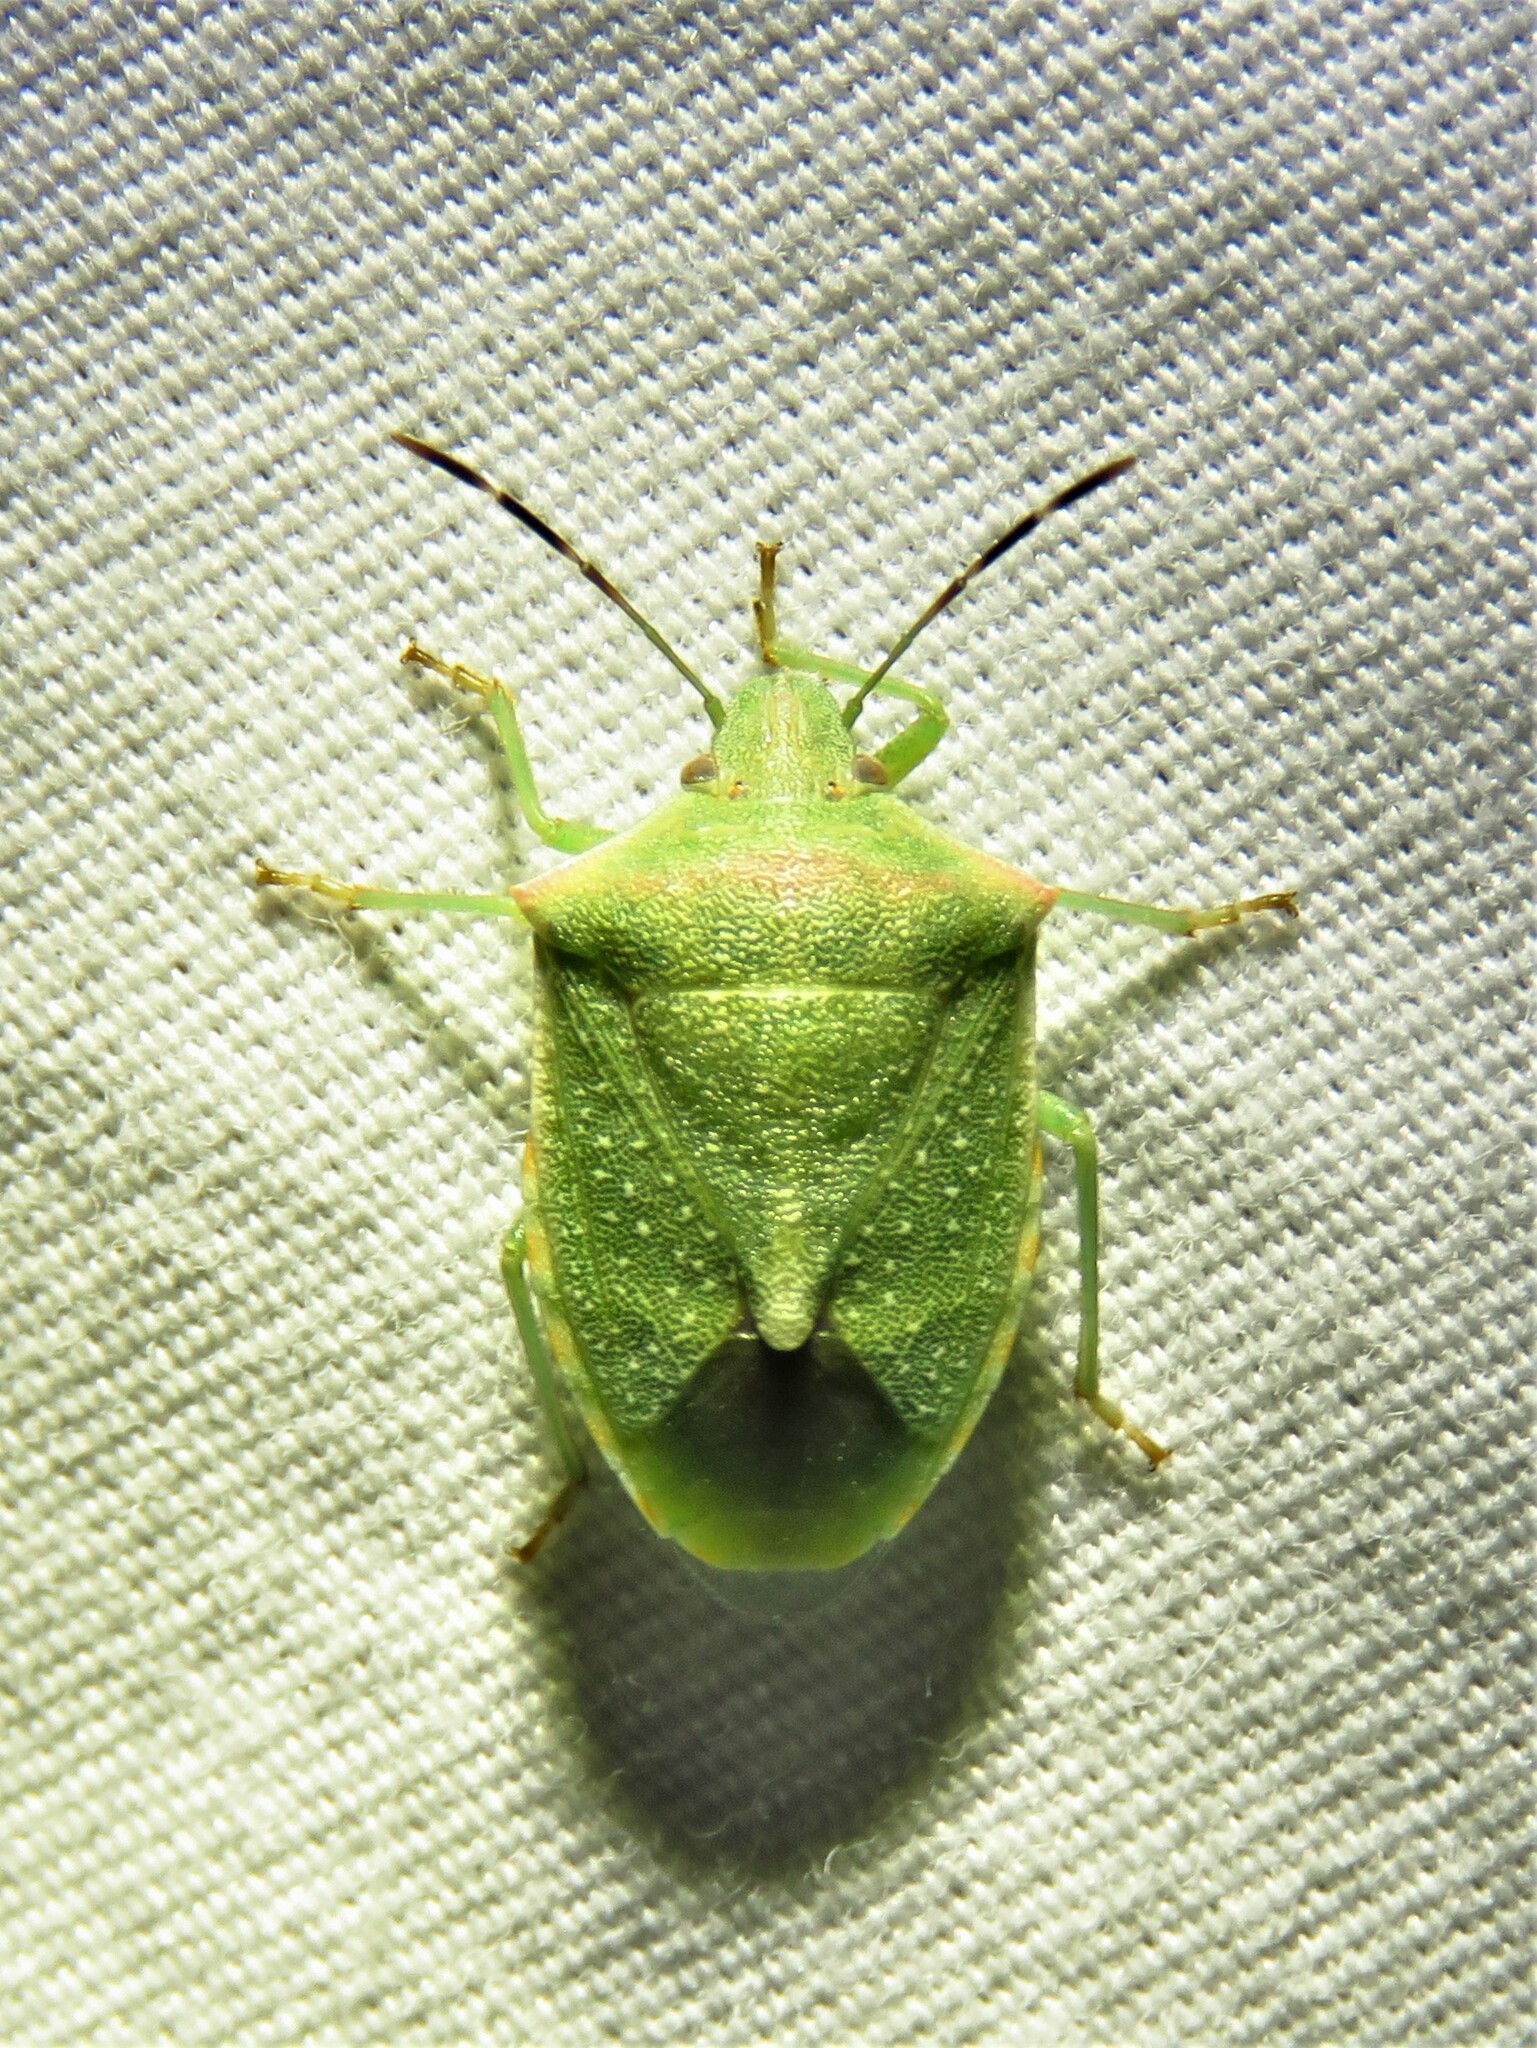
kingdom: Animalia
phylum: Arthropoda
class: Insecta
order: Hemiptera
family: Pentatomidae
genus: Thyanta
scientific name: Thyanta accerra
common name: Stink bug
